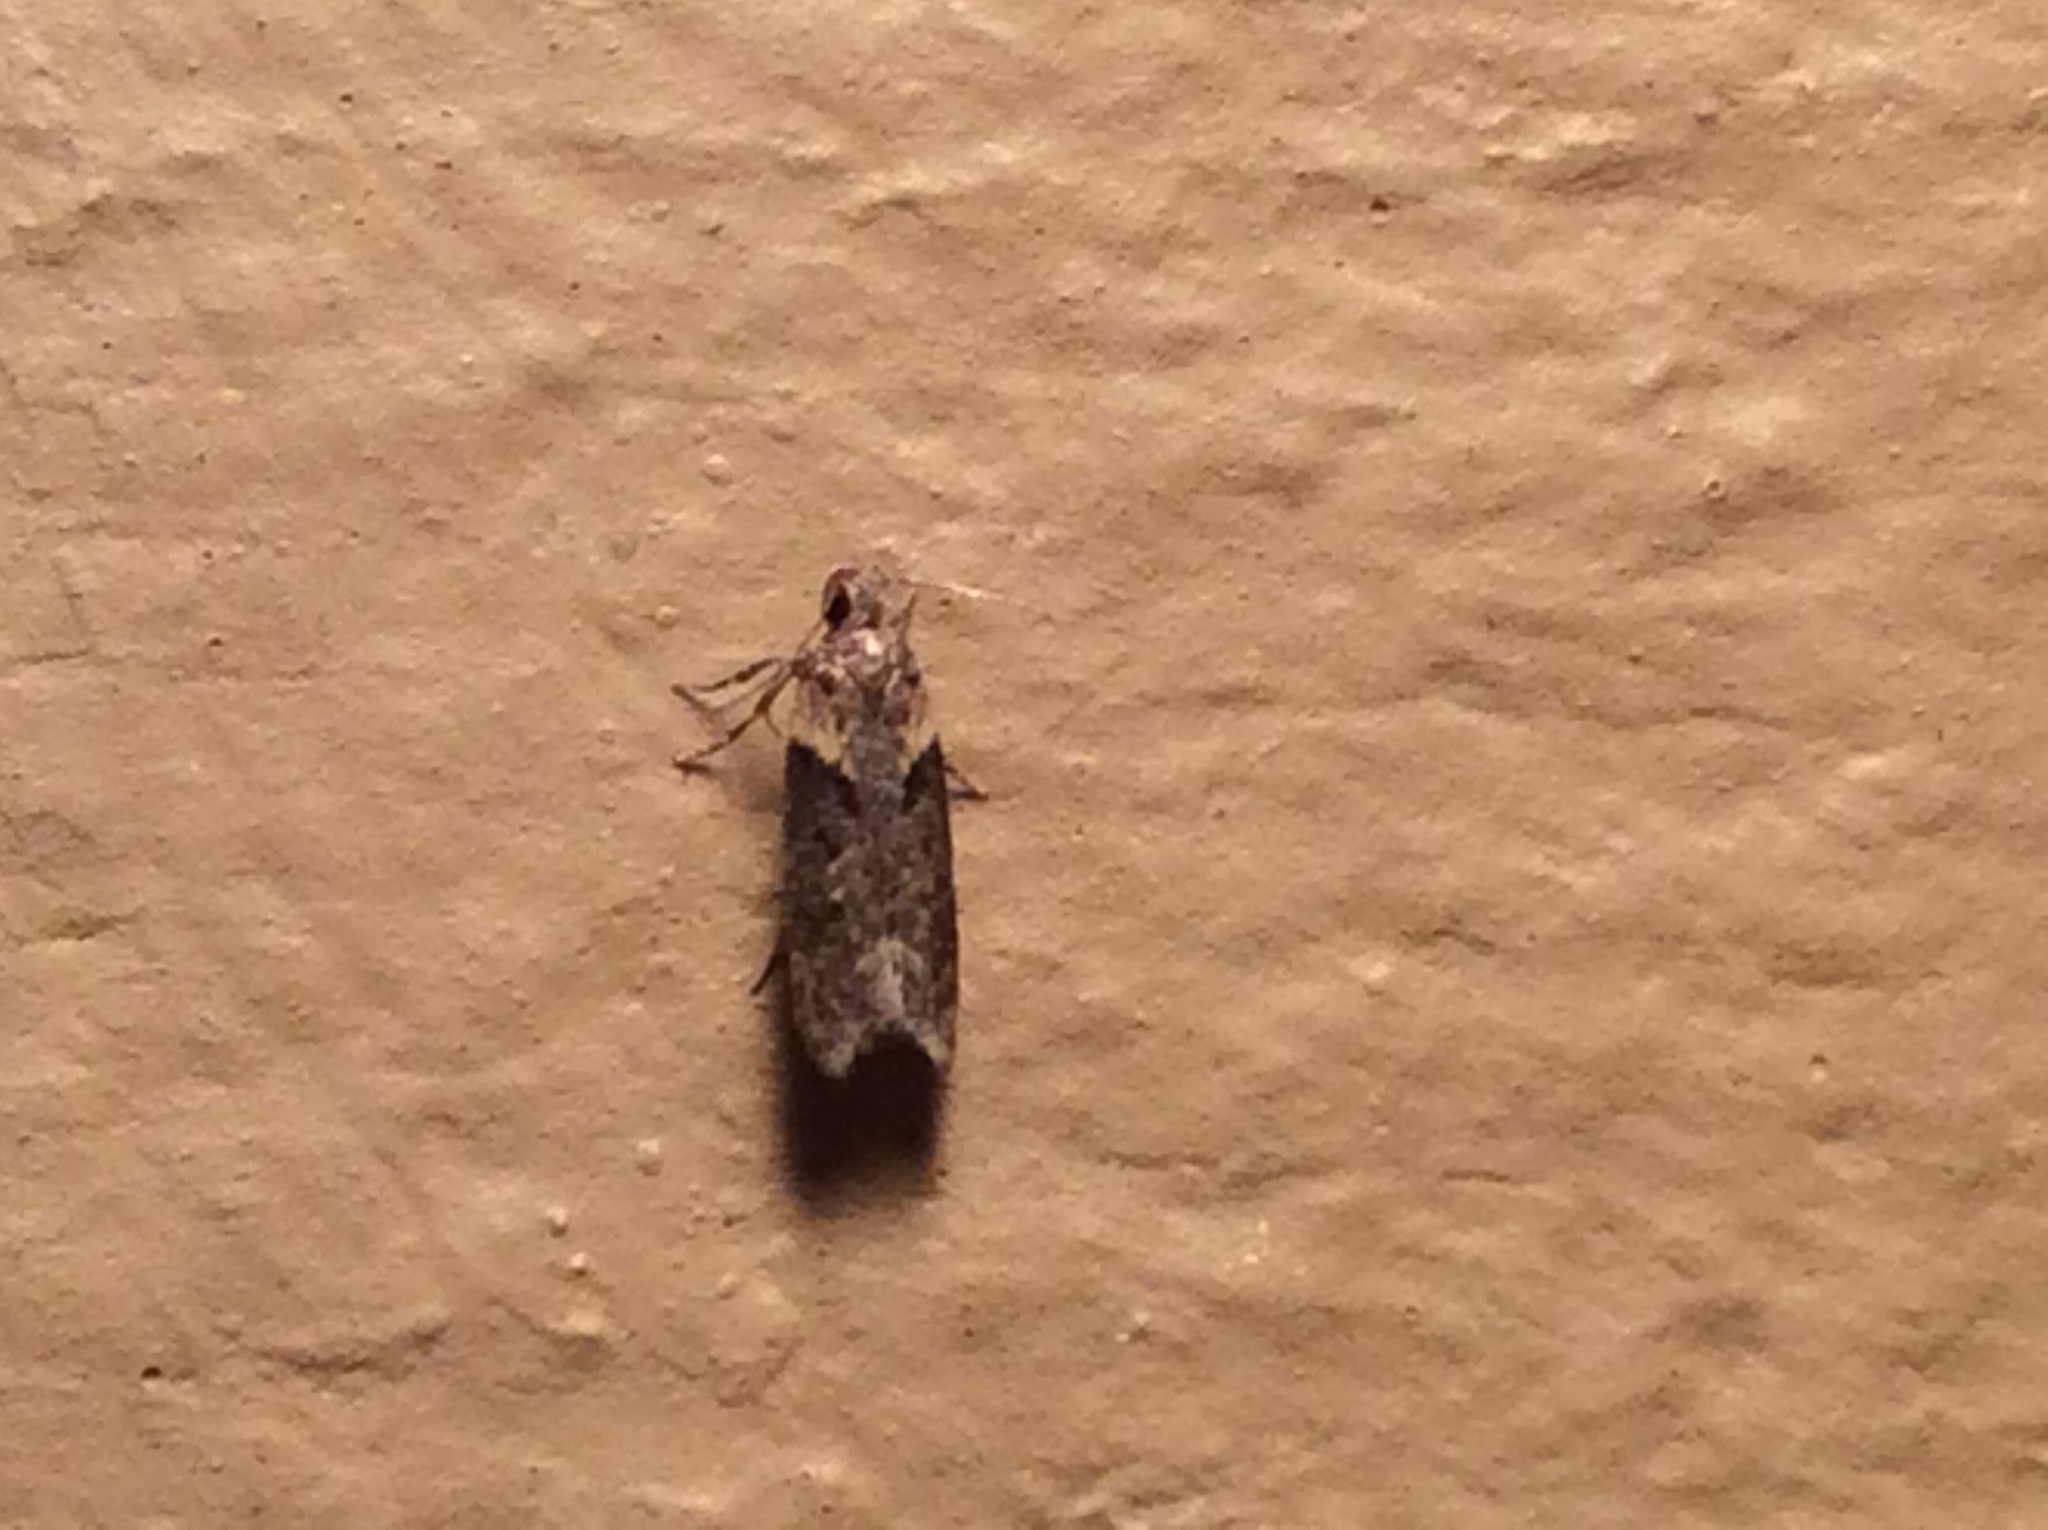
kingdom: Animalia
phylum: Arthropoda
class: Insecta
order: Lepidoptera
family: Gelechiidae
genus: Chionodes
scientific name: Chionodes mediofuscella
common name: Black-smudged chionodes moth
